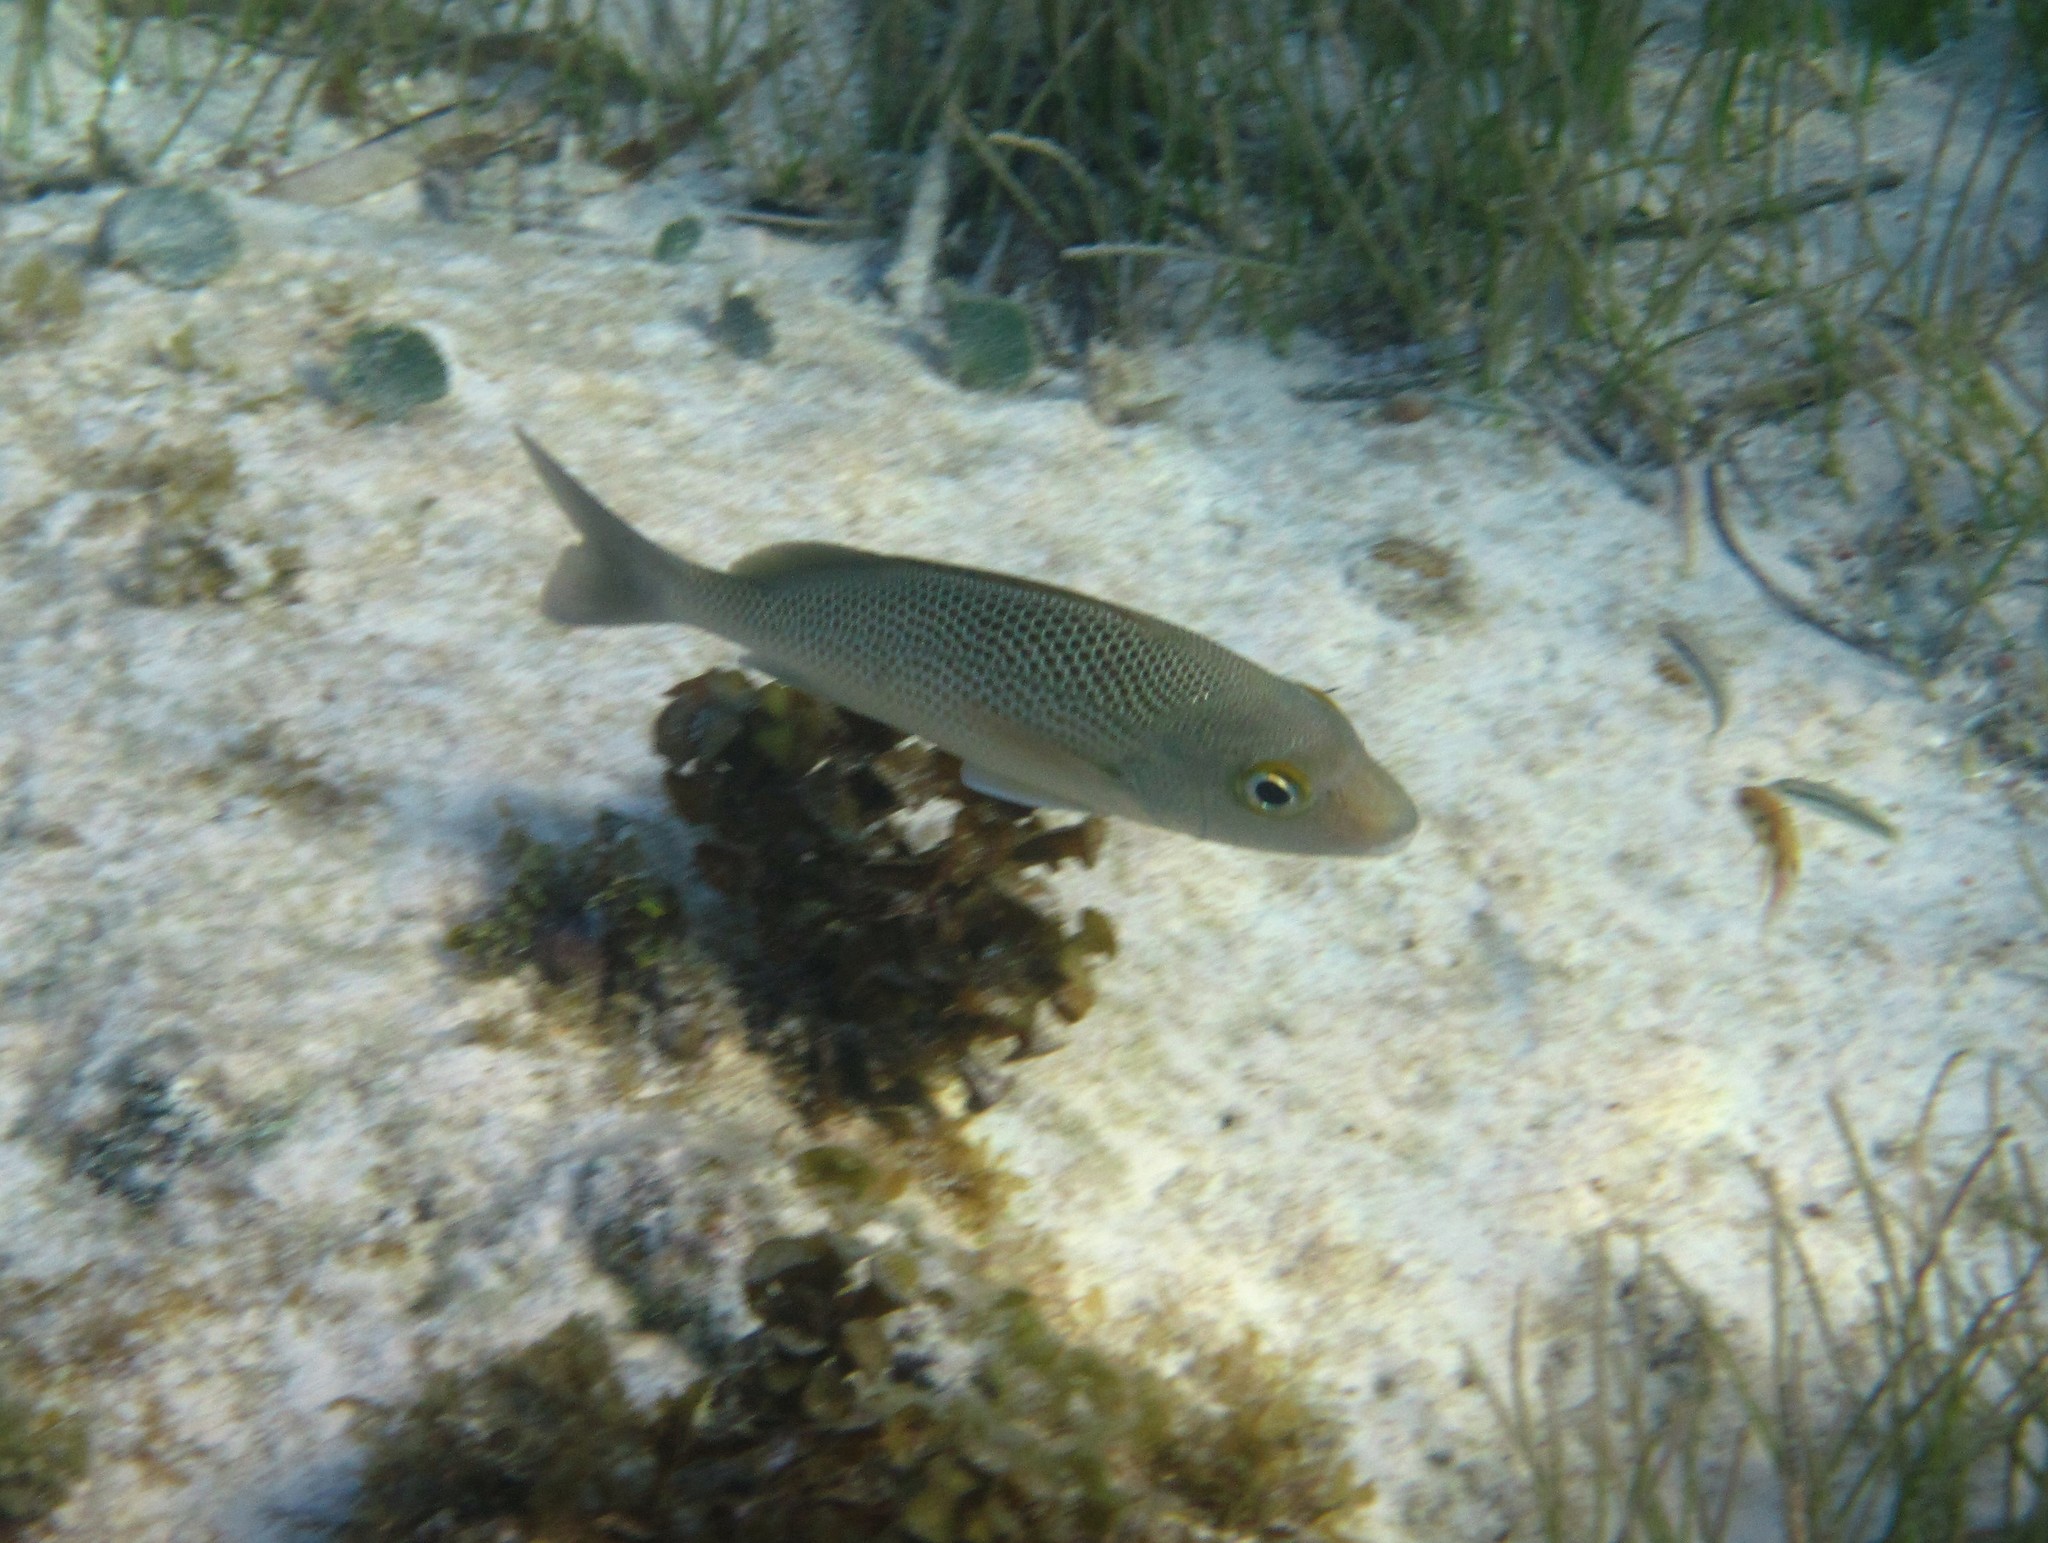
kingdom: Animalia
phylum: Chordata
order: Perciformes
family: Haemulidae
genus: Haemulon
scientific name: Haemulon parra
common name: Sailor's choice
